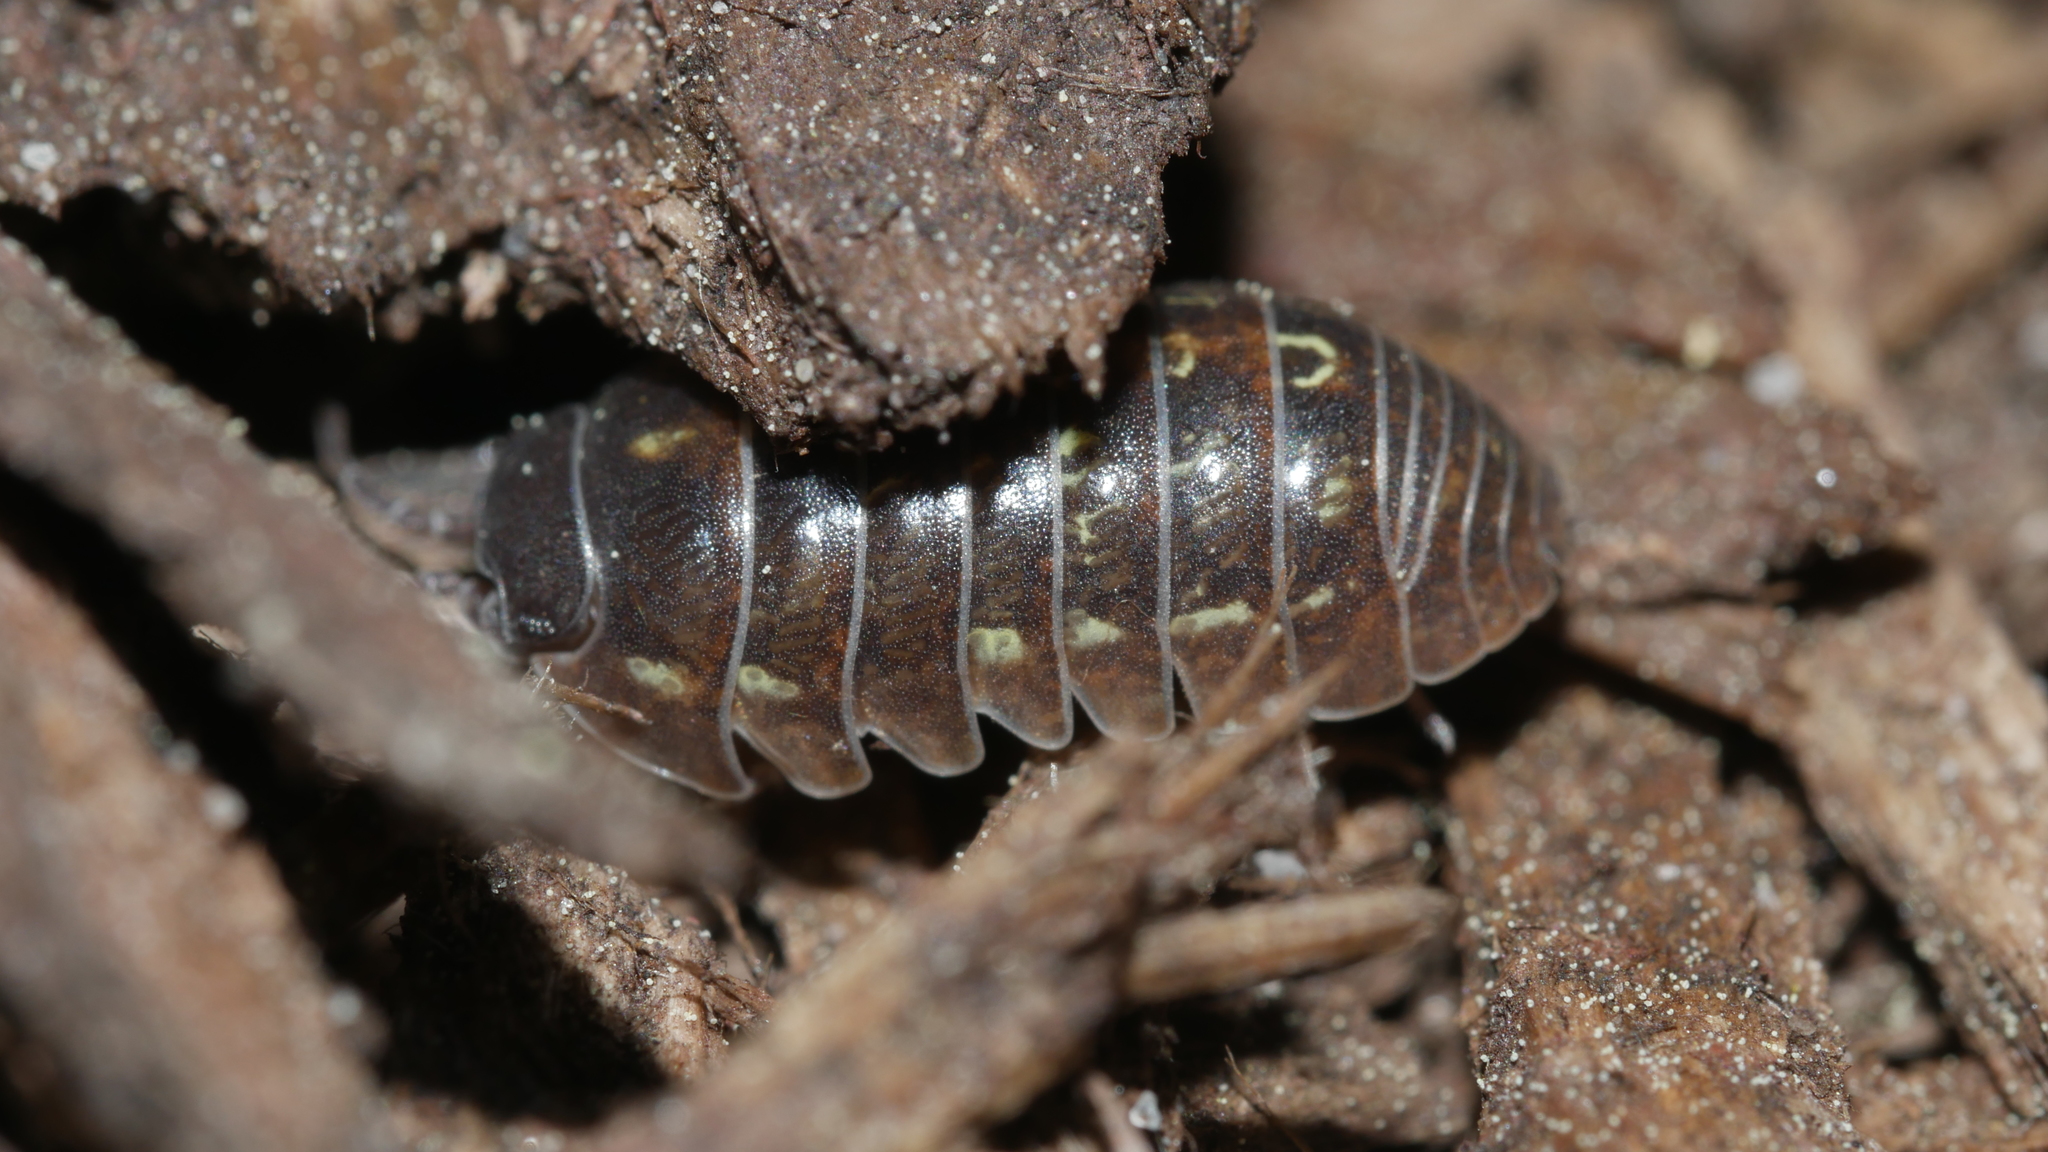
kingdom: Animalia
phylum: Arthropoda
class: Malacostraca
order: Isopoda
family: Armadillidiidae
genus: Armadillidium
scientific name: Armadillidium vulgare
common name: Common pill woodlouse
